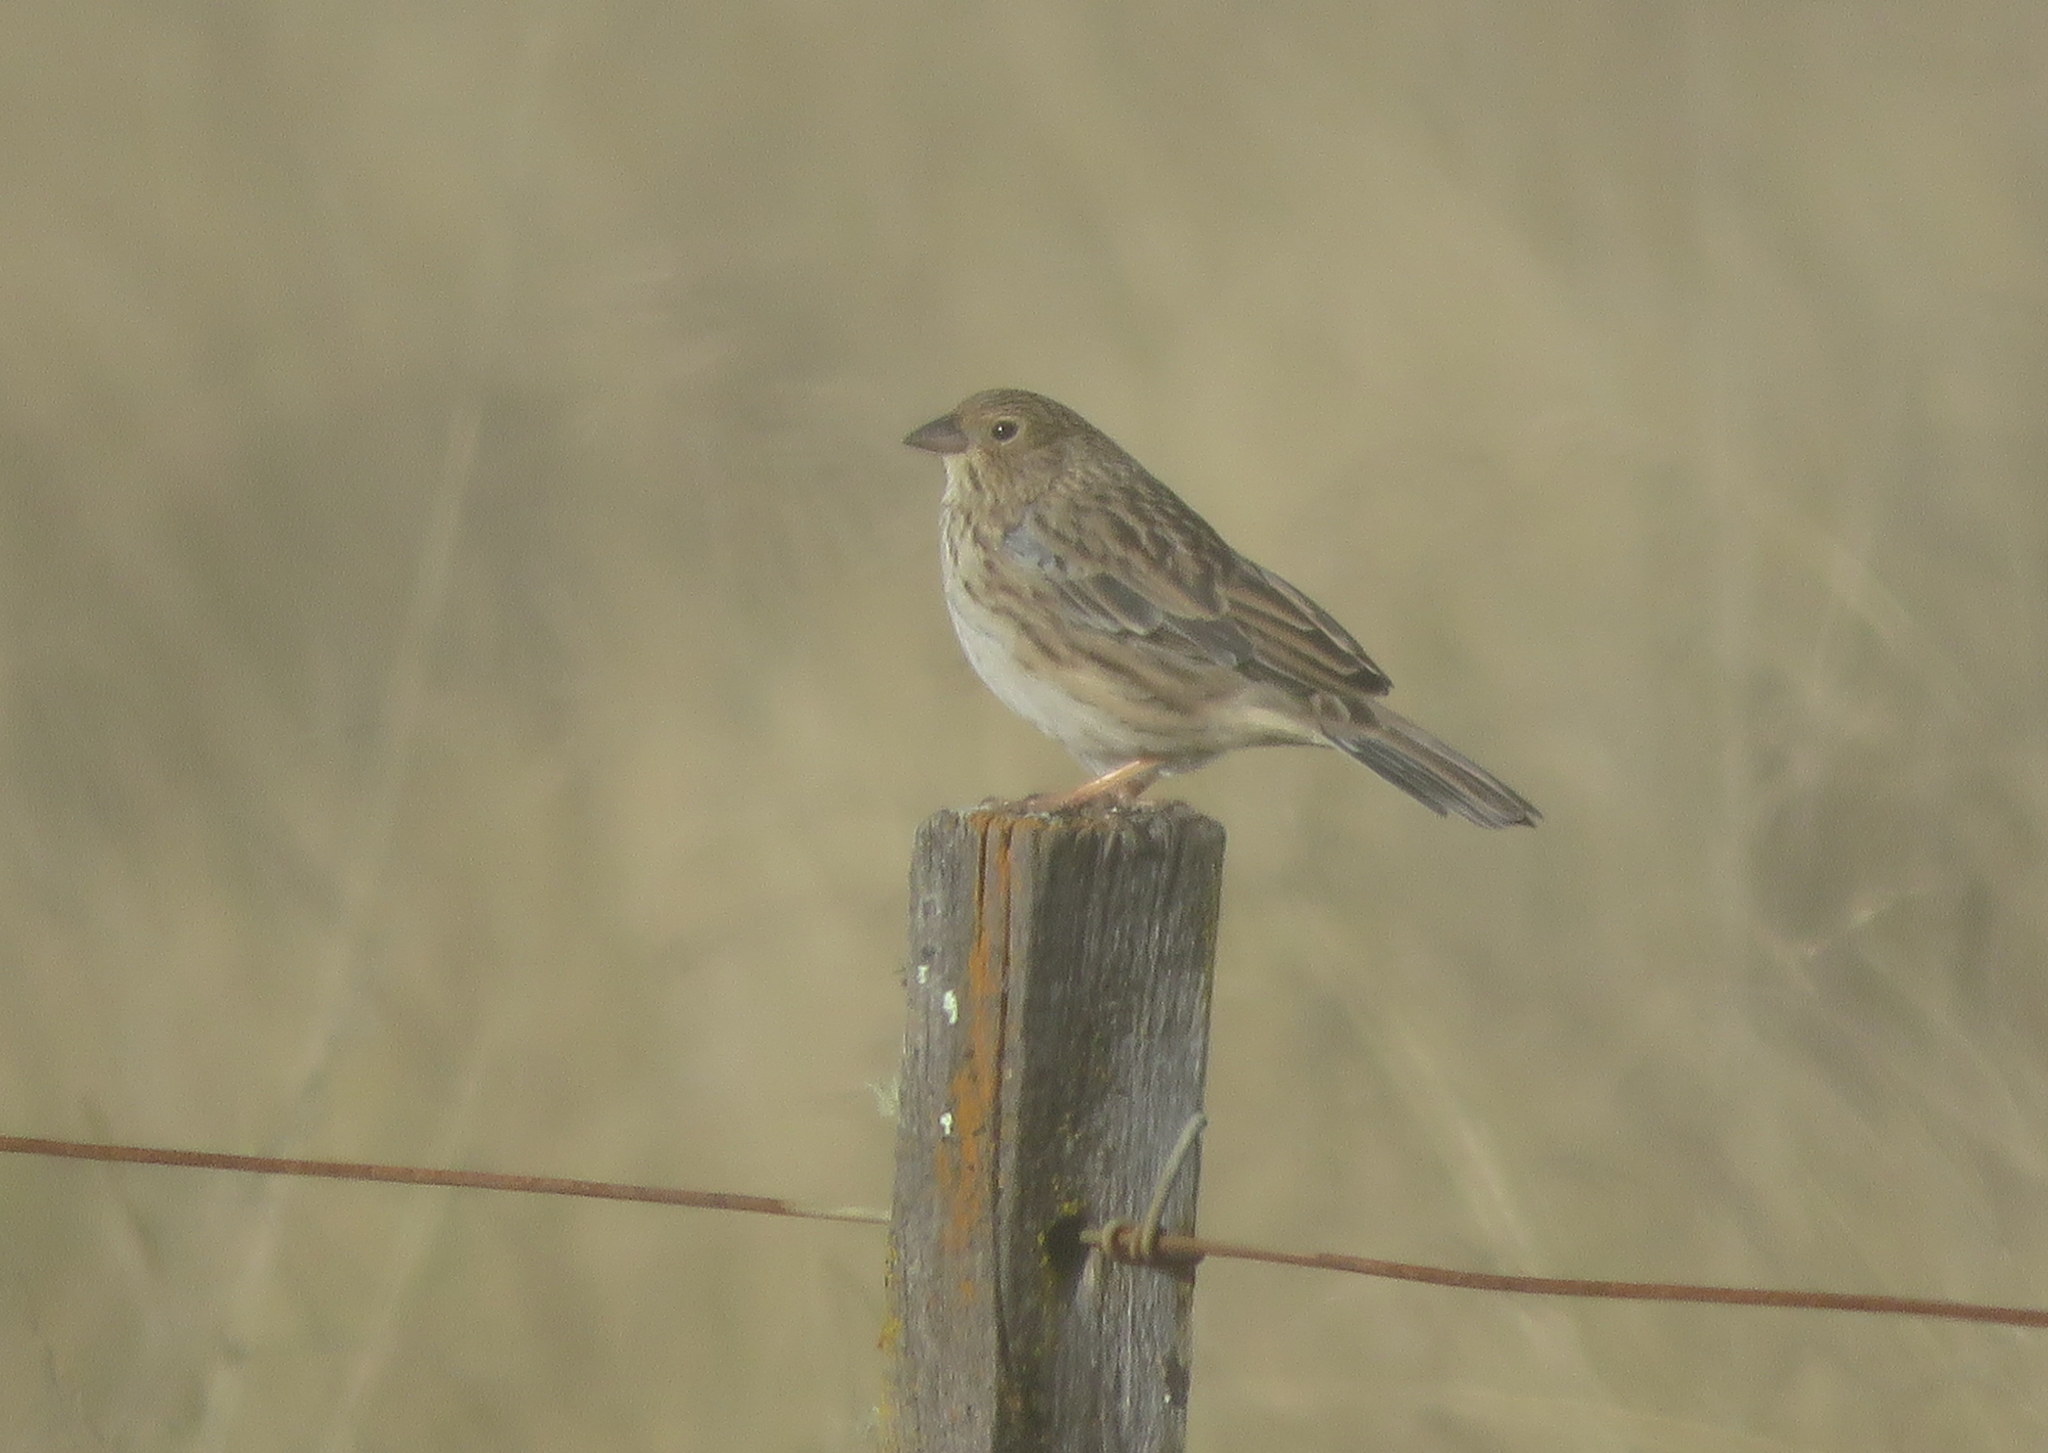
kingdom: Animalia
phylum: Chordata
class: Aves
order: Passeriformes
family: Thraupidae
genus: Porphyrospiza
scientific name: Porphyrospiza alaudina
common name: Band-tailed sierra finch
